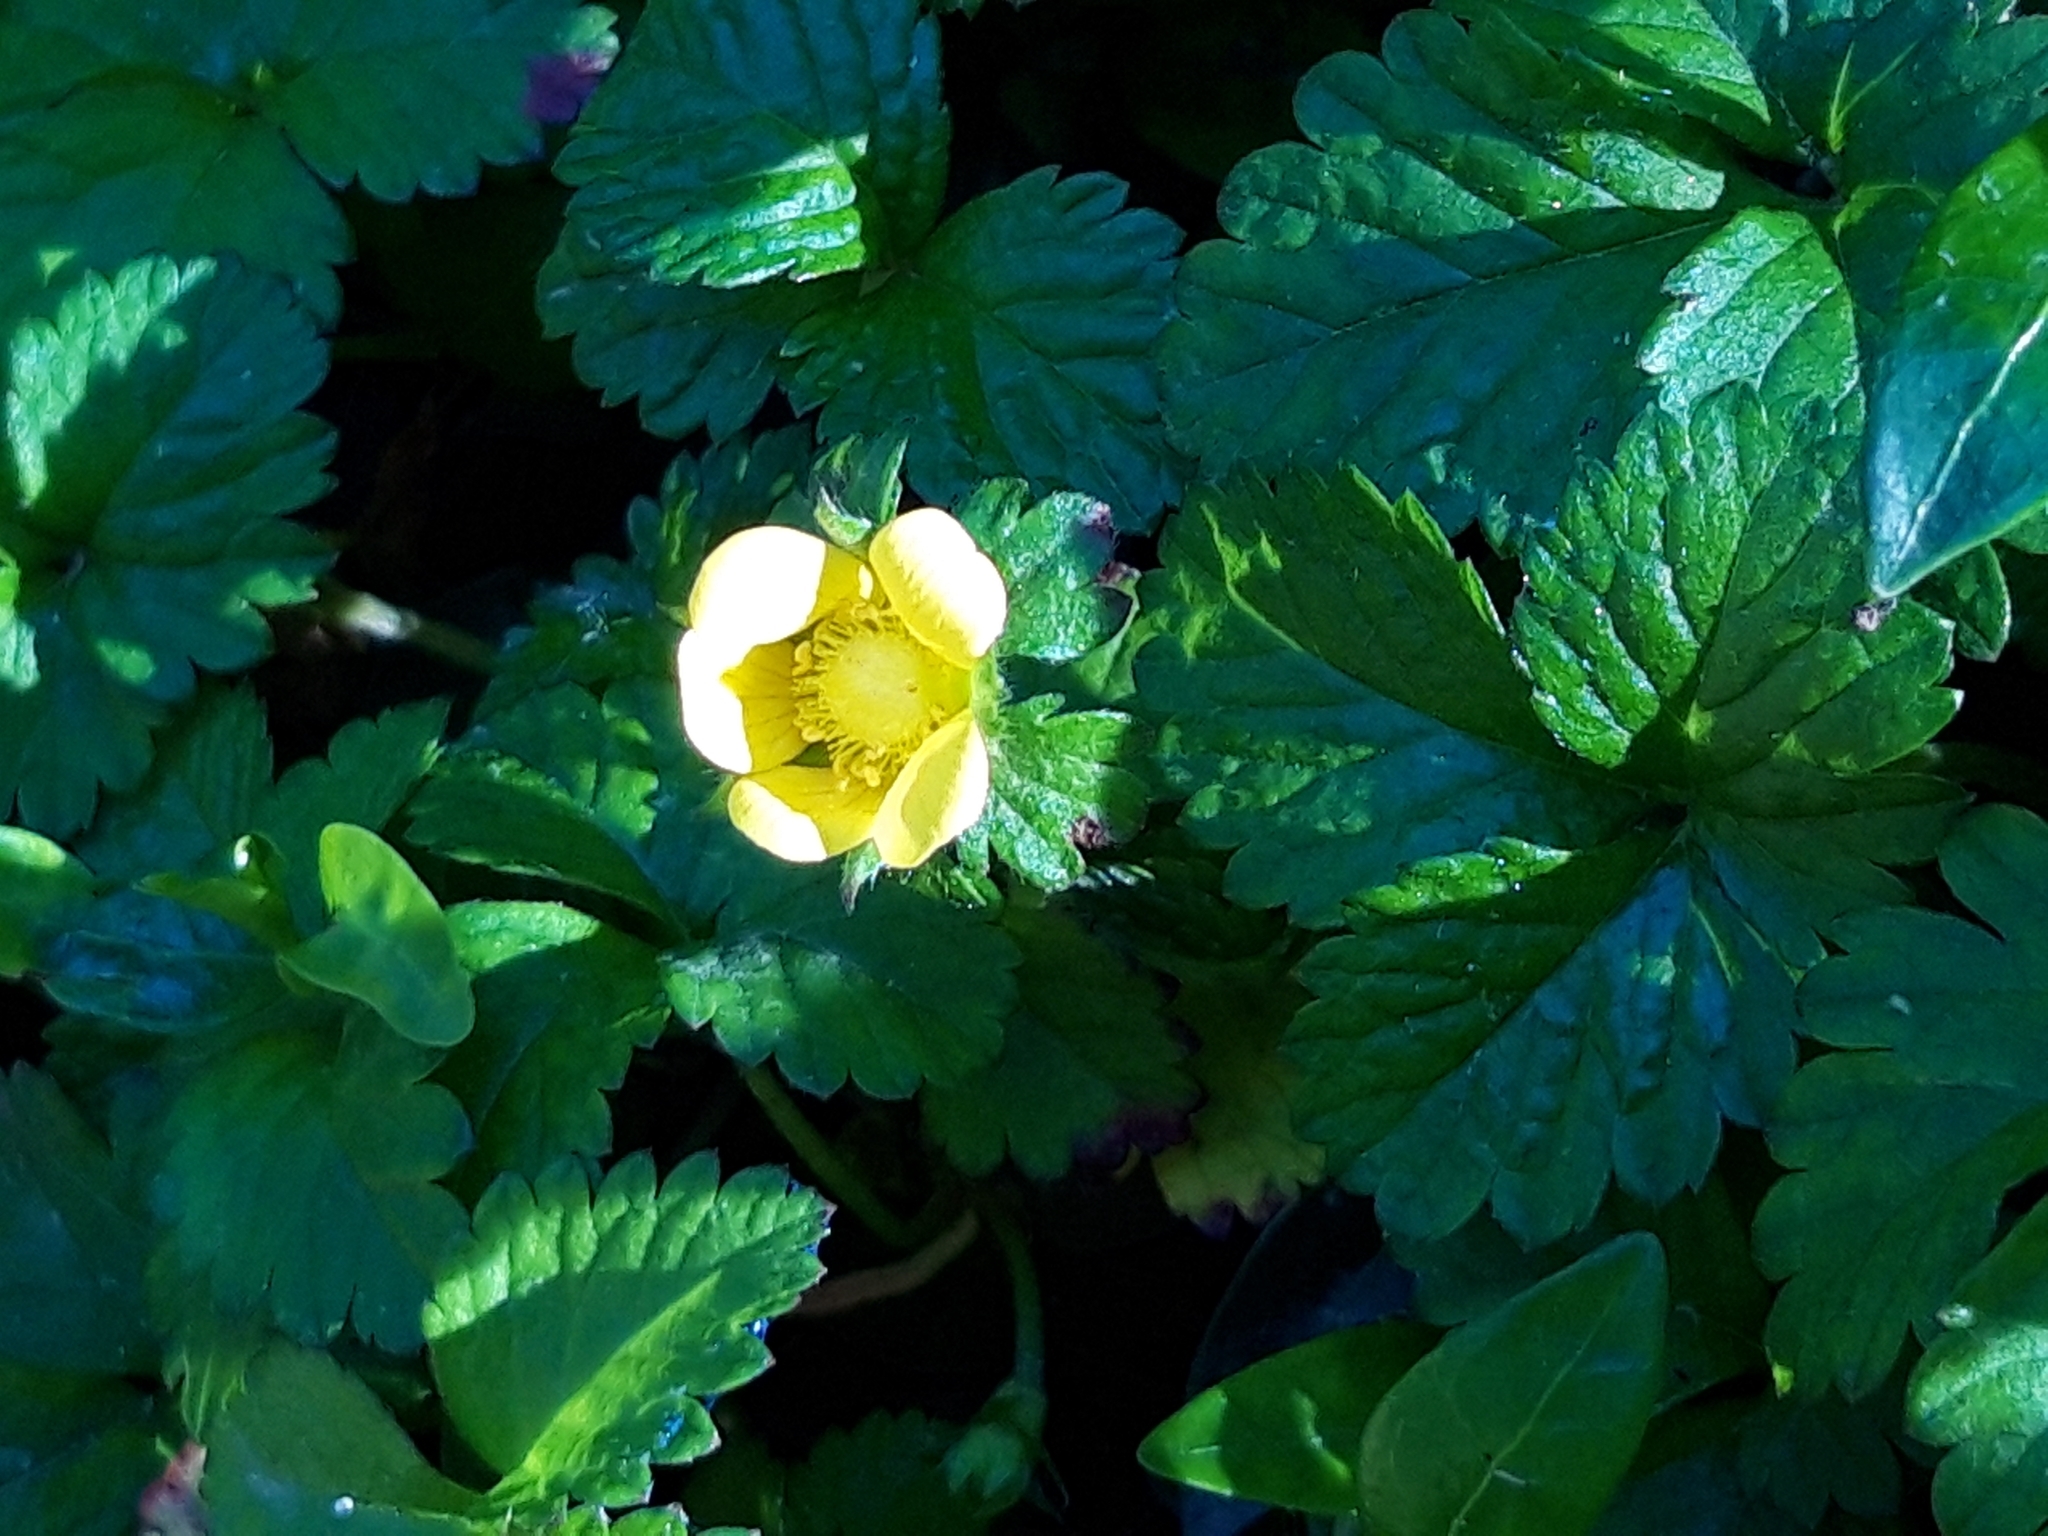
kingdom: Plantae
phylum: Tracheophyta
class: Magnoliopsida
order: Rosales
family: Rosaceae
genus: Potentilla
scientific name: Potentilla indica
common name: Yellow-flowered strawberry
